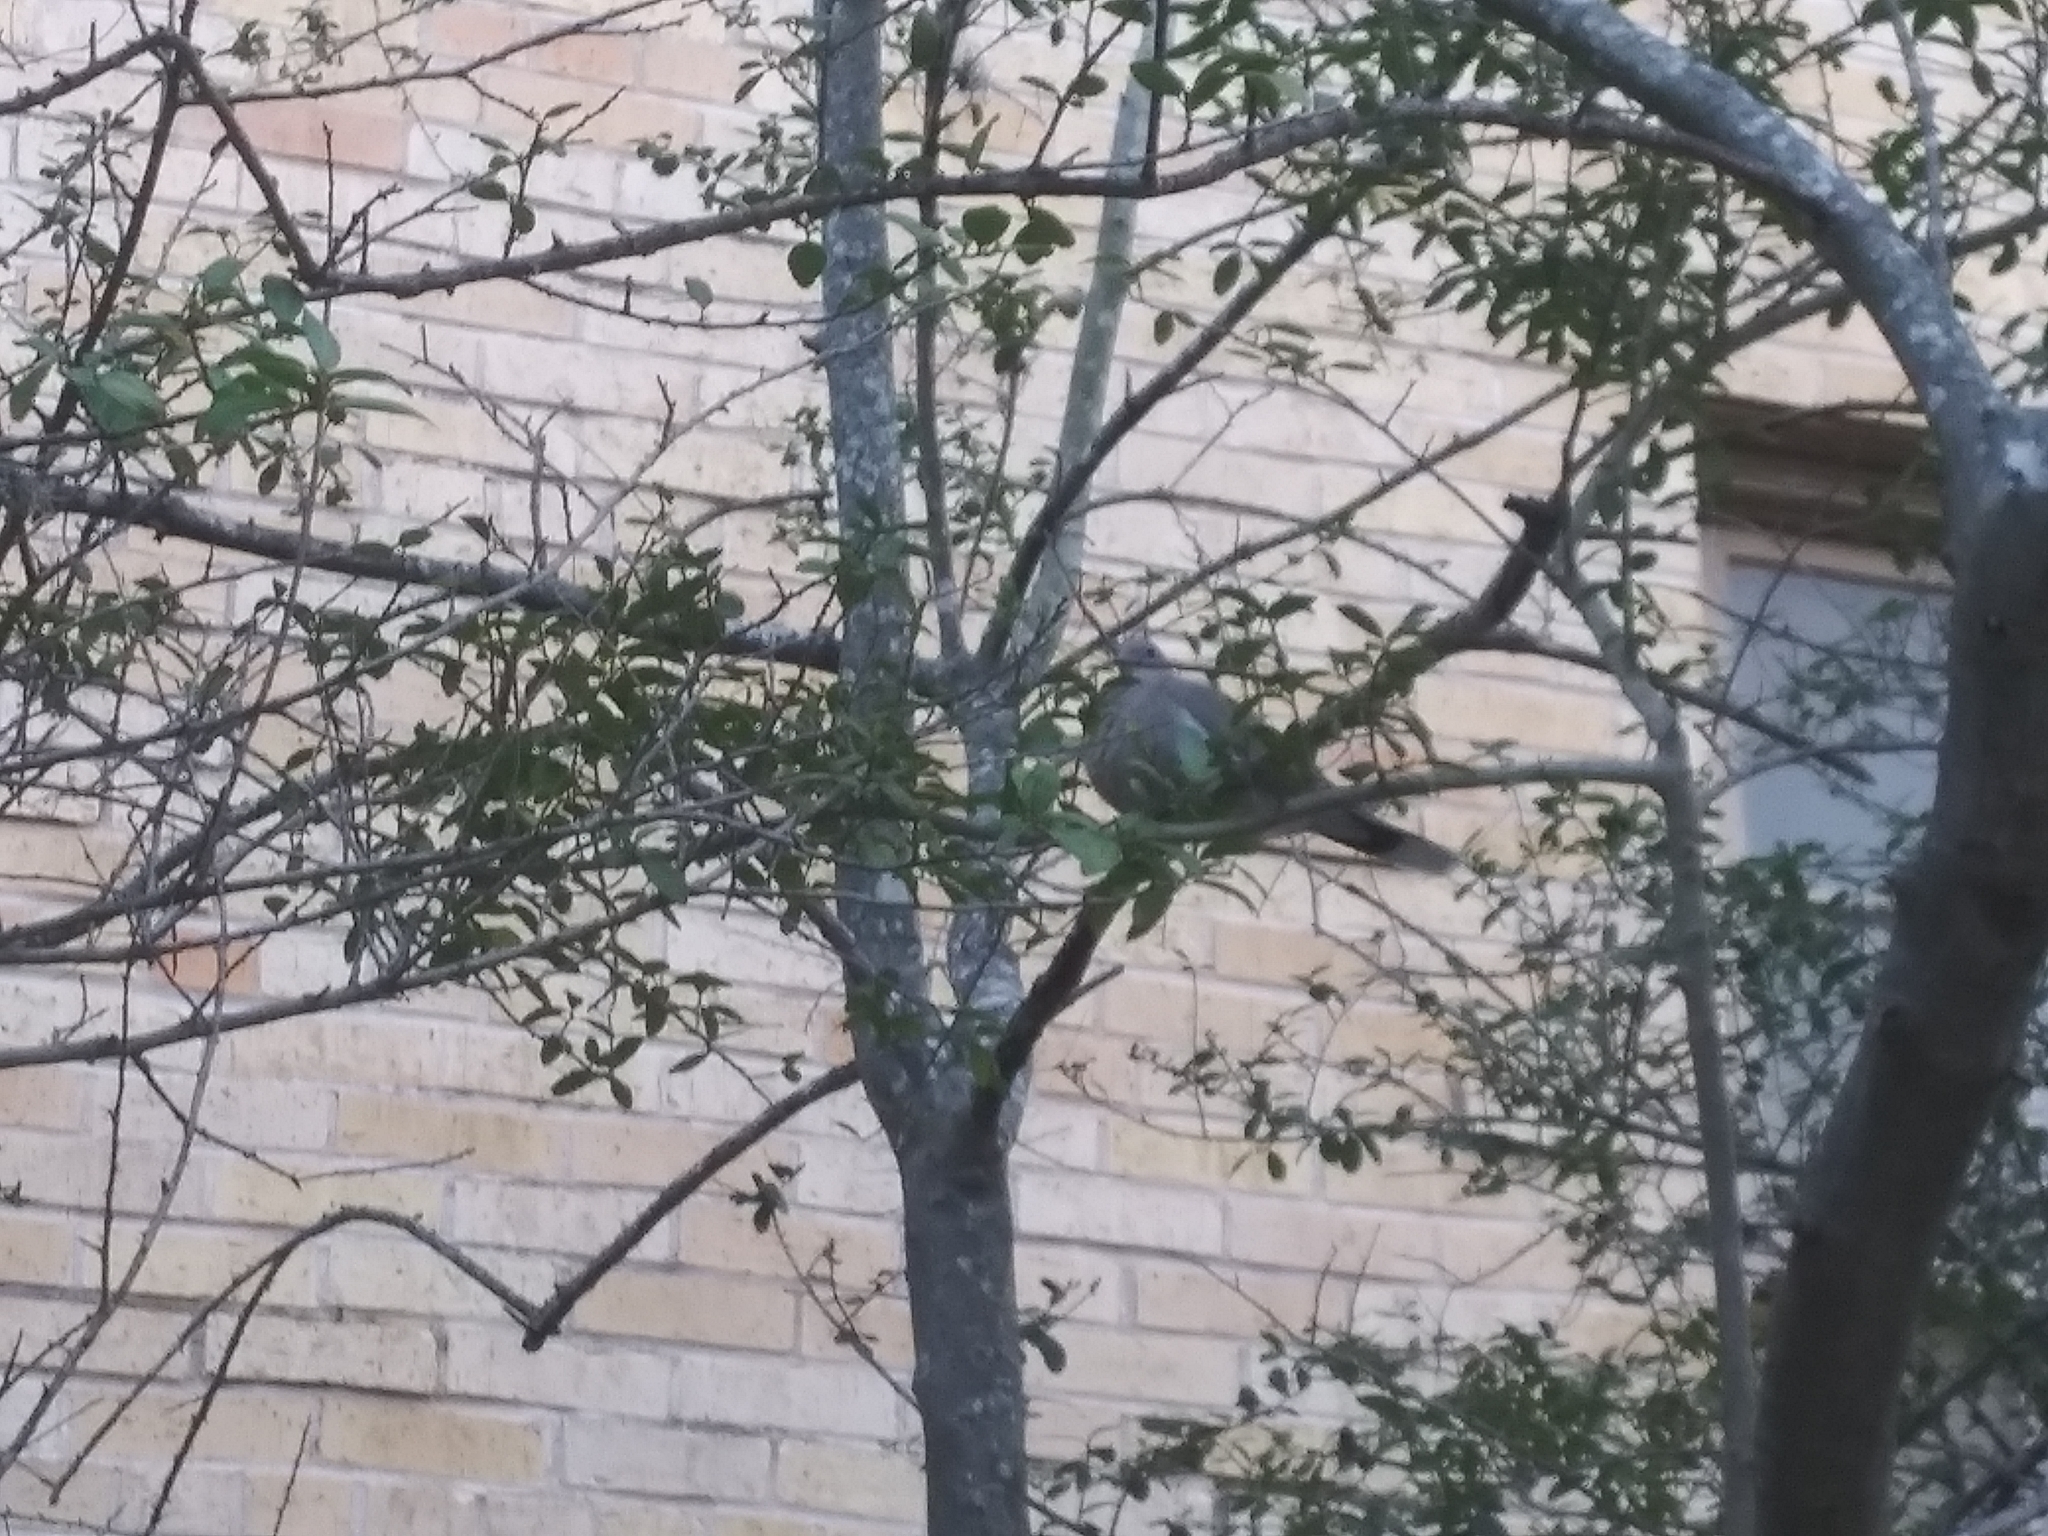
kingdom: Animalia
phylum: Chordata
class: Aves
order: Columbiformes
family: Columbidae
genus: Zenaida
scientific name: Zenaida asiatica
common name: White-winged dove
